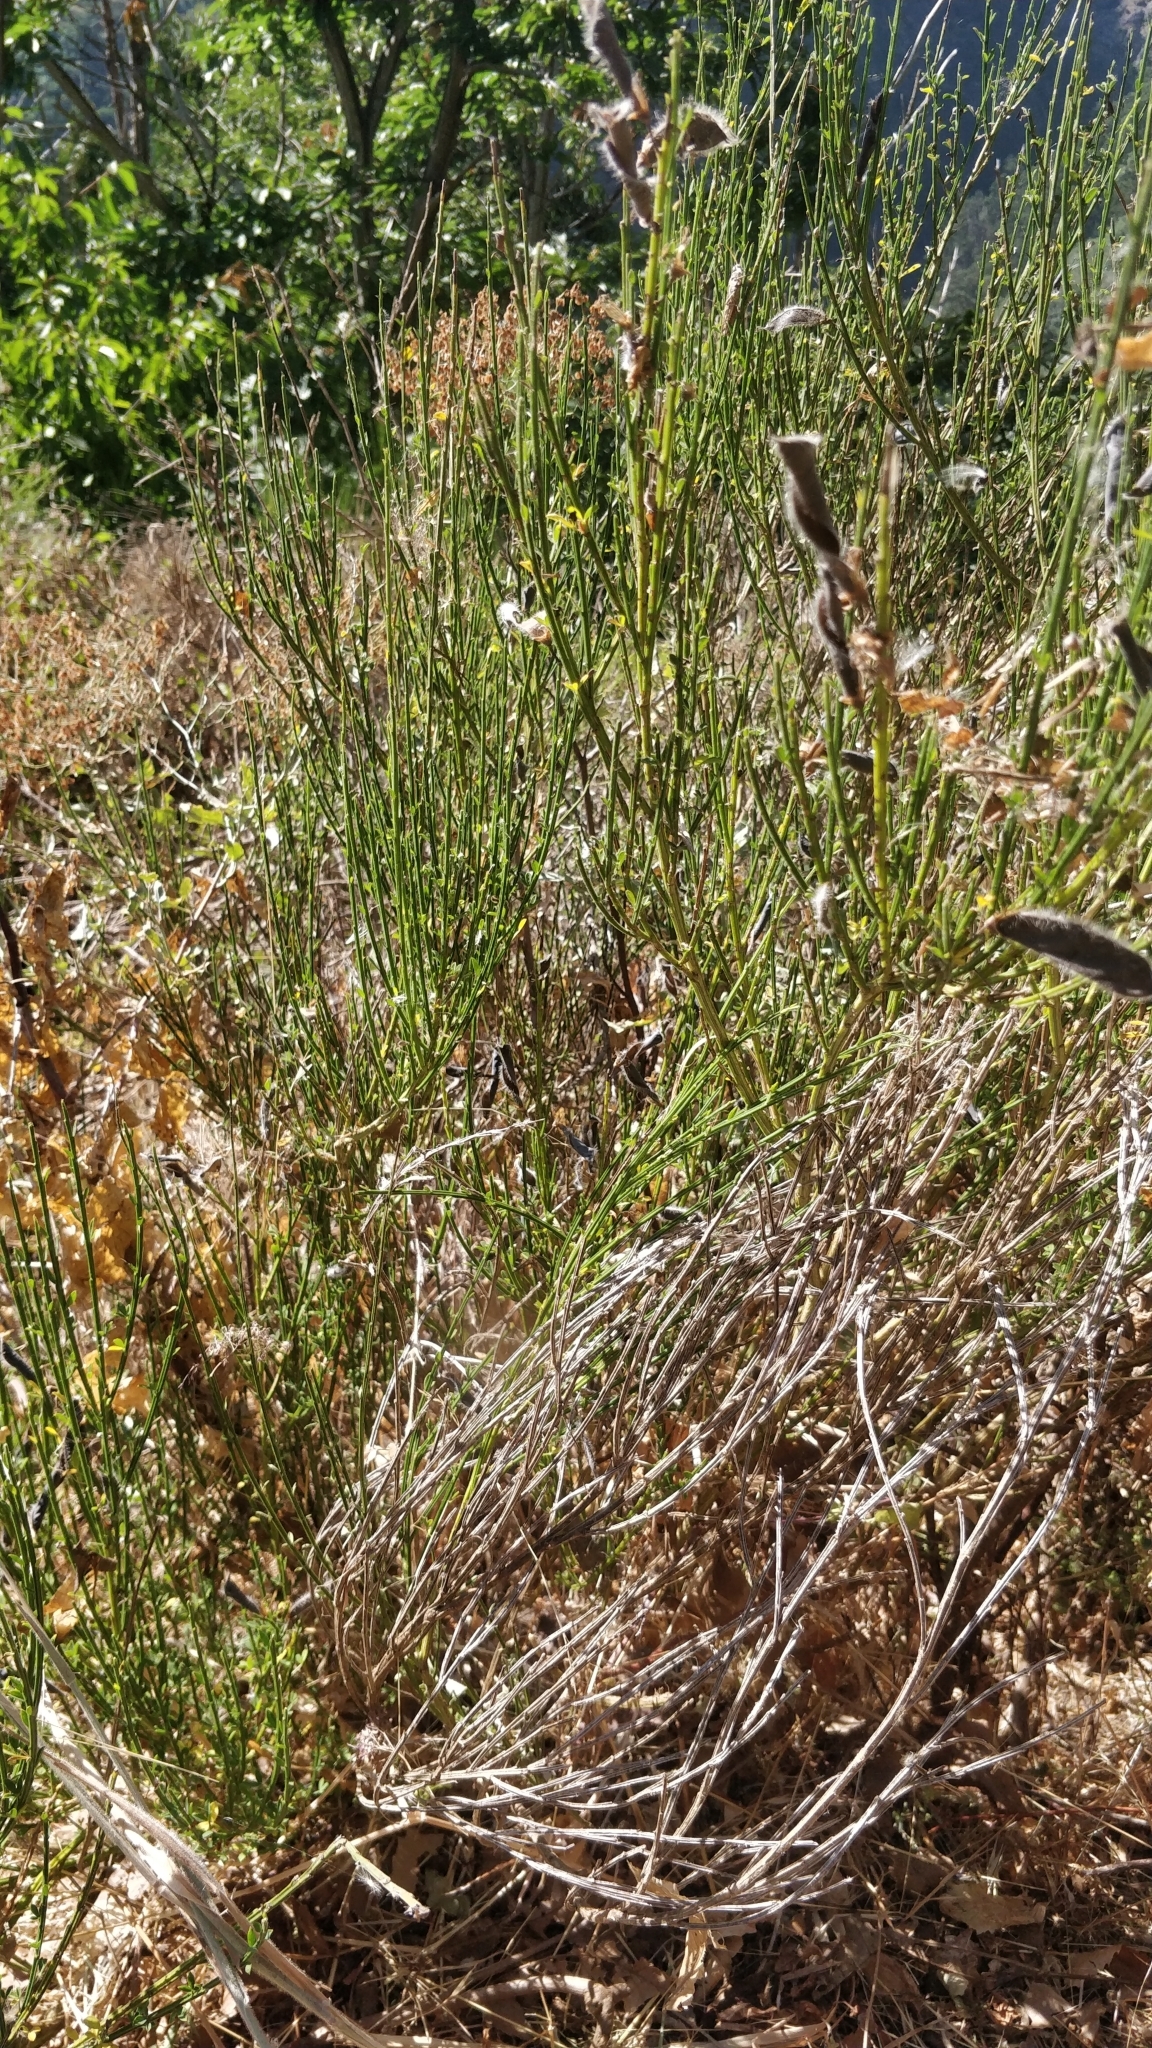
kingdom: Plantae
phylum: Tracheophyta
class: Magnoliopsida
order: Fabales
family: Fabaceae
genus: Cytisus
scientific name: Cytisus scoparius
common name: Scotch broom
